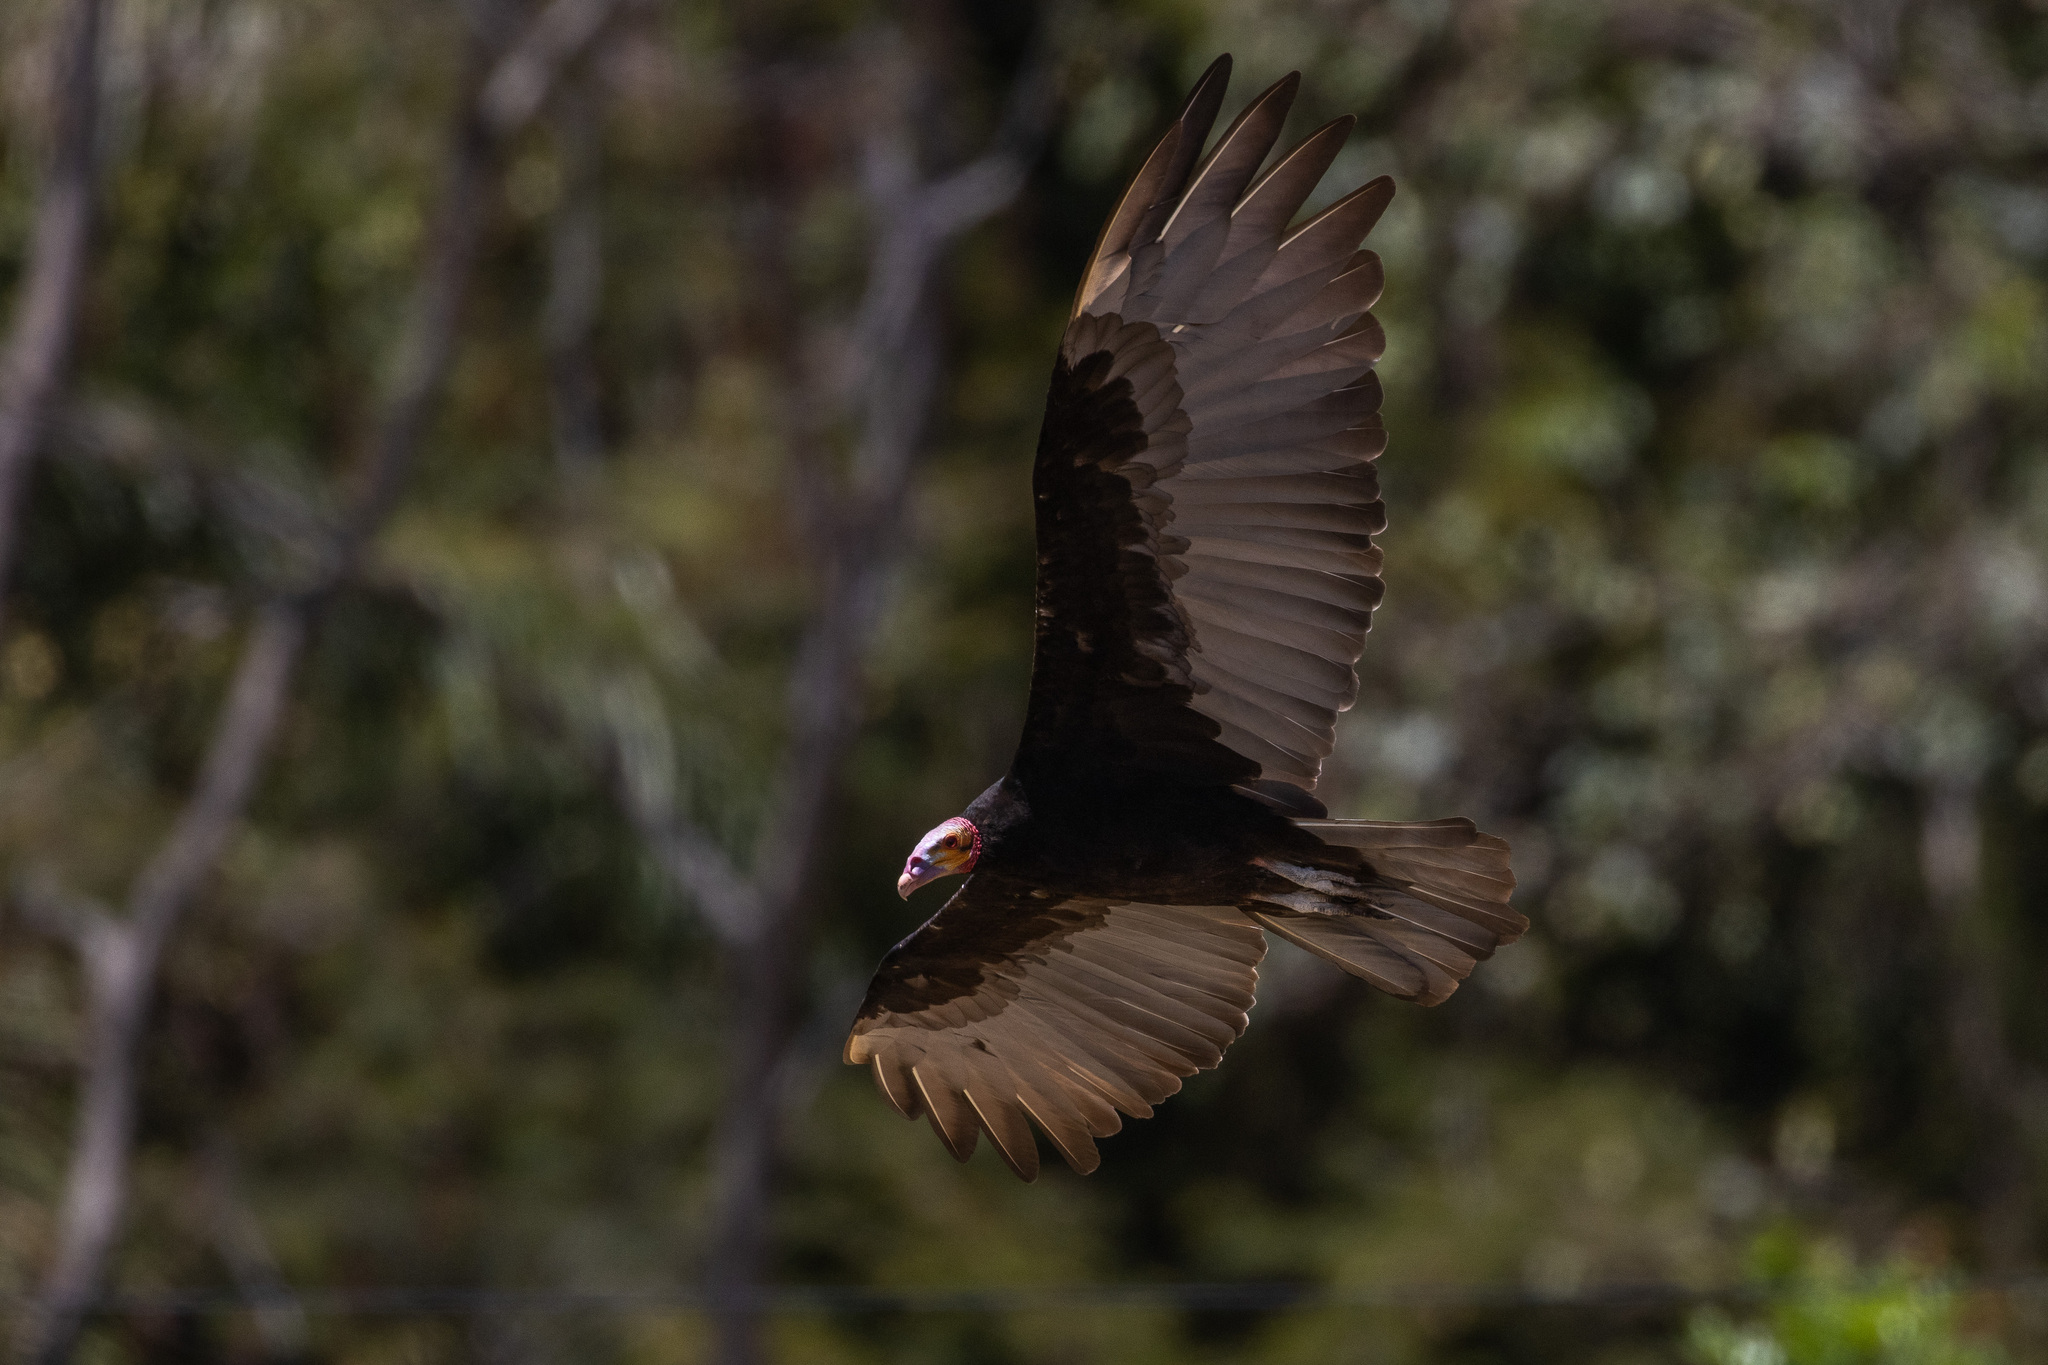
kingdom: Animalia
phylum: Chordata
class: Aves
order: Accipitriformes
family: Cathartidae
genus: Cathartes
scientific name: Cathartes burrovianus
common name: Lesser yellow-headed vulture
